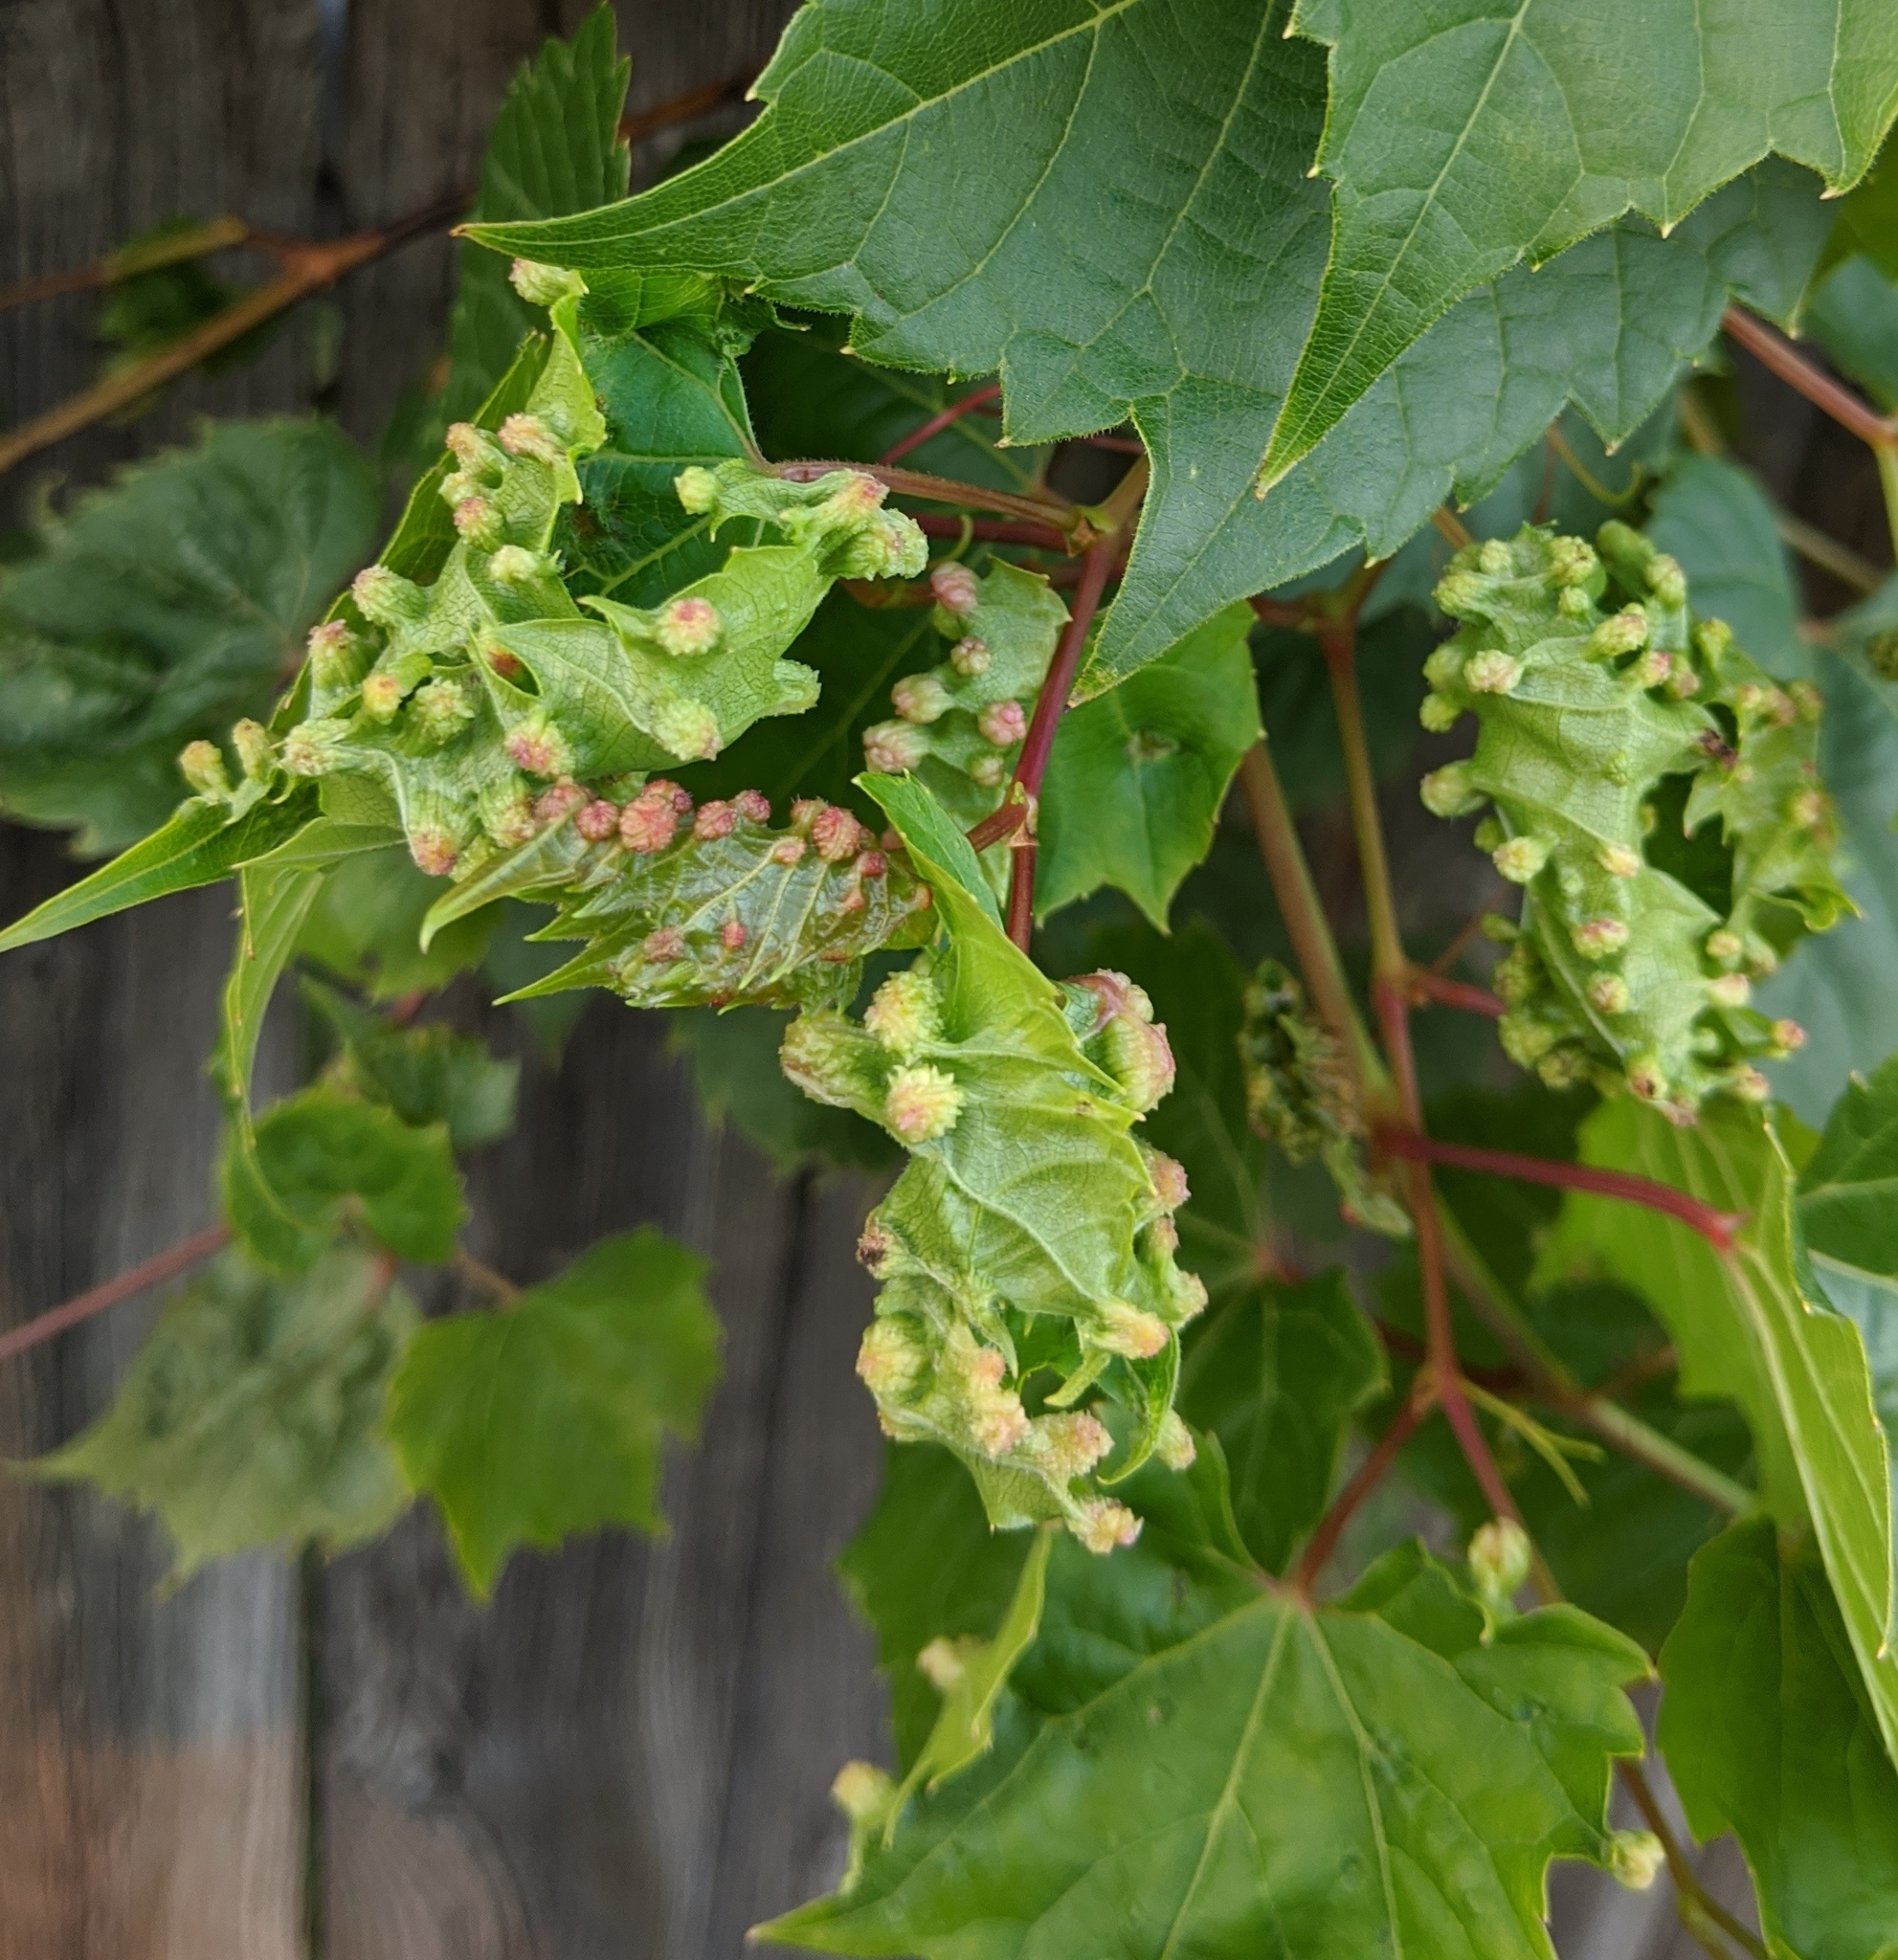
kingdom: Animalia
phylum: Arthropoda
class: Insecta
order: Hemiptera
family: Phylloxeridae
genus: Daktulosphaira
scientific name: Daktulosphaira vitifoliae
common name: Grape phylloxera
